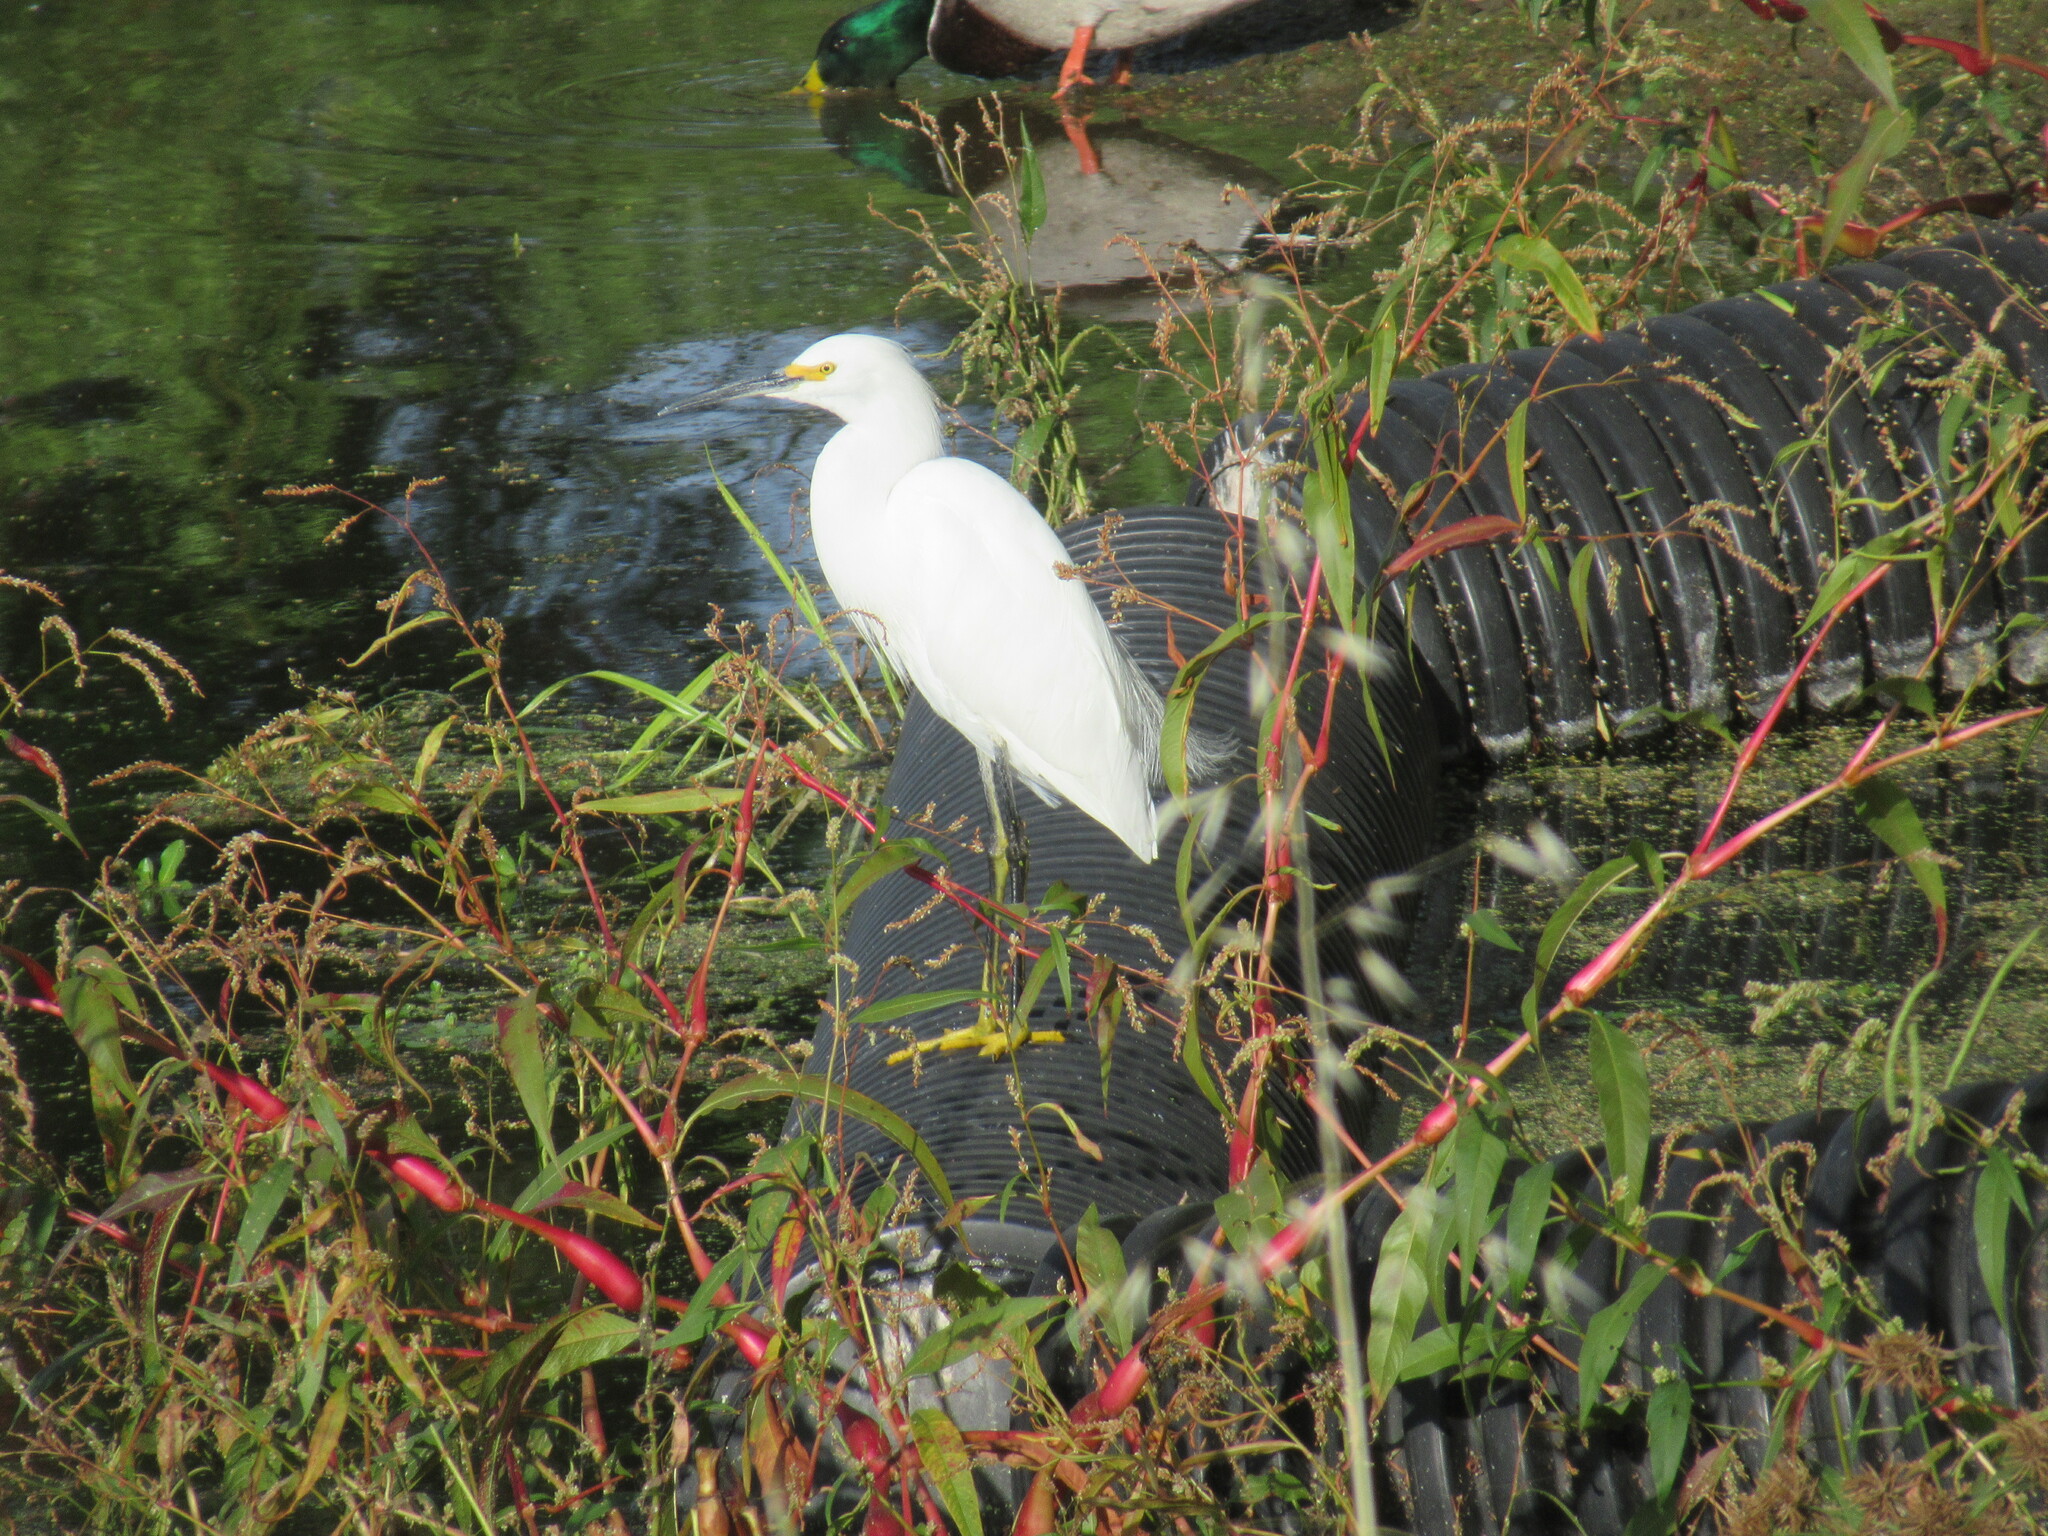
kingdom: Animalia
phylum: Chordata
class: Aves
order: Pelecaniformes
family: Ardeidae
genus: Egretta
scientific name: Egretta thula
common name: Snowy egret
